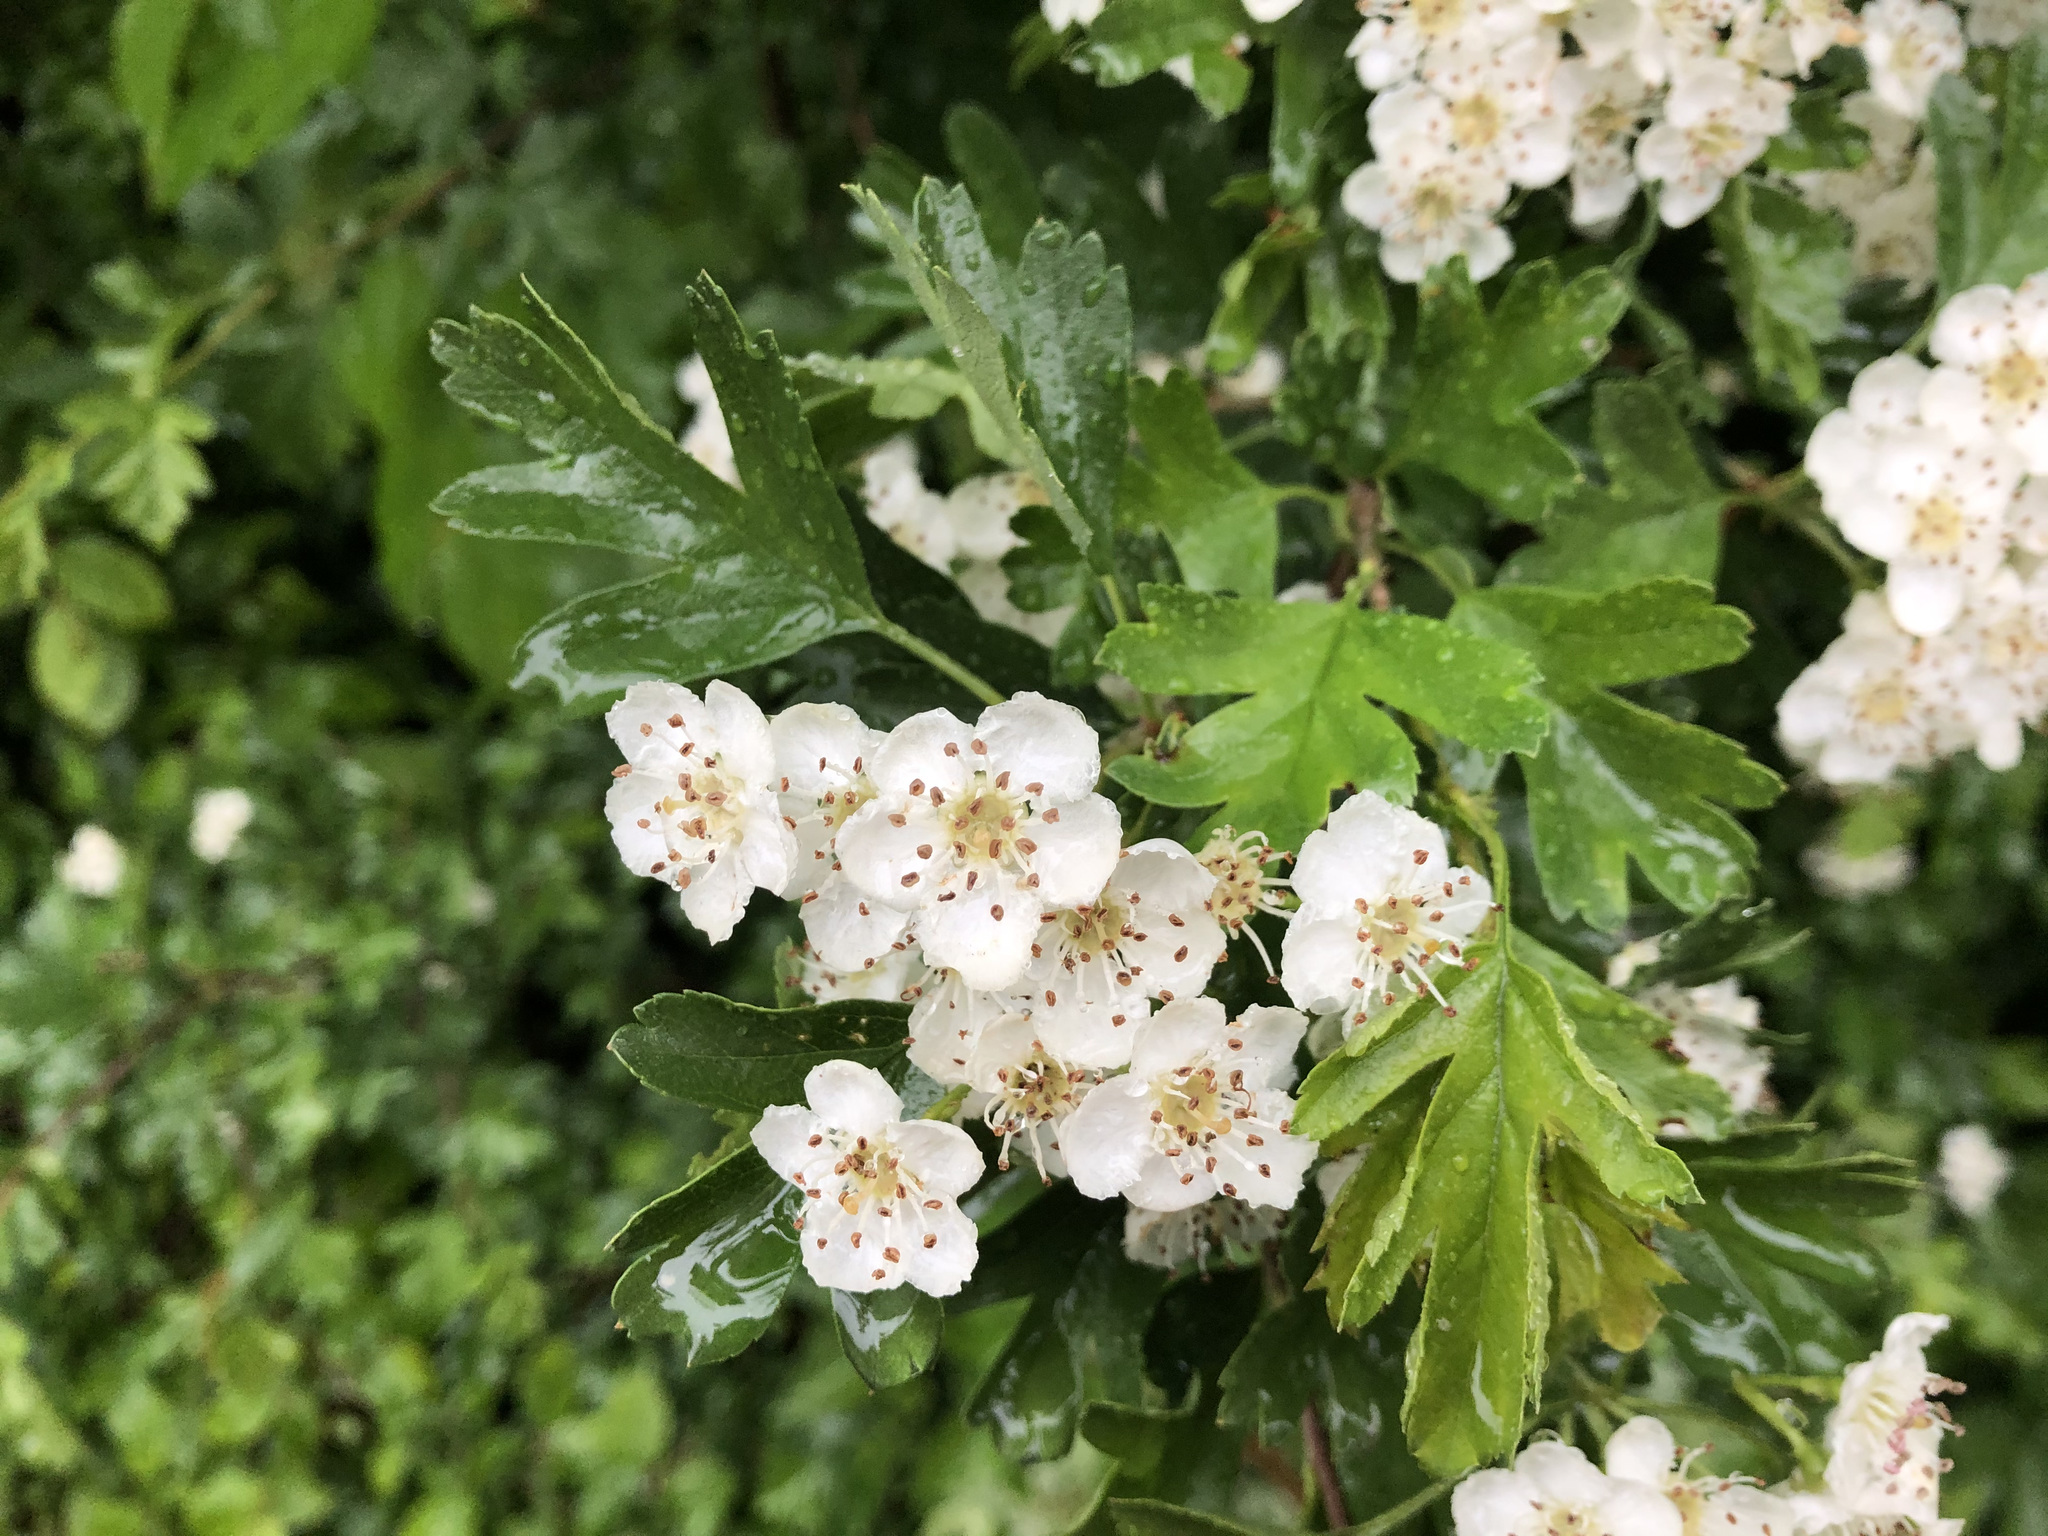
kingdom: Plantae
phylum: Tracheophyta
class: Magnoliopsida
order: Rosales
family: Rosaceae
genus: Crataegus
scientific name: Crataegus monogyna
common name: Hawthorn
